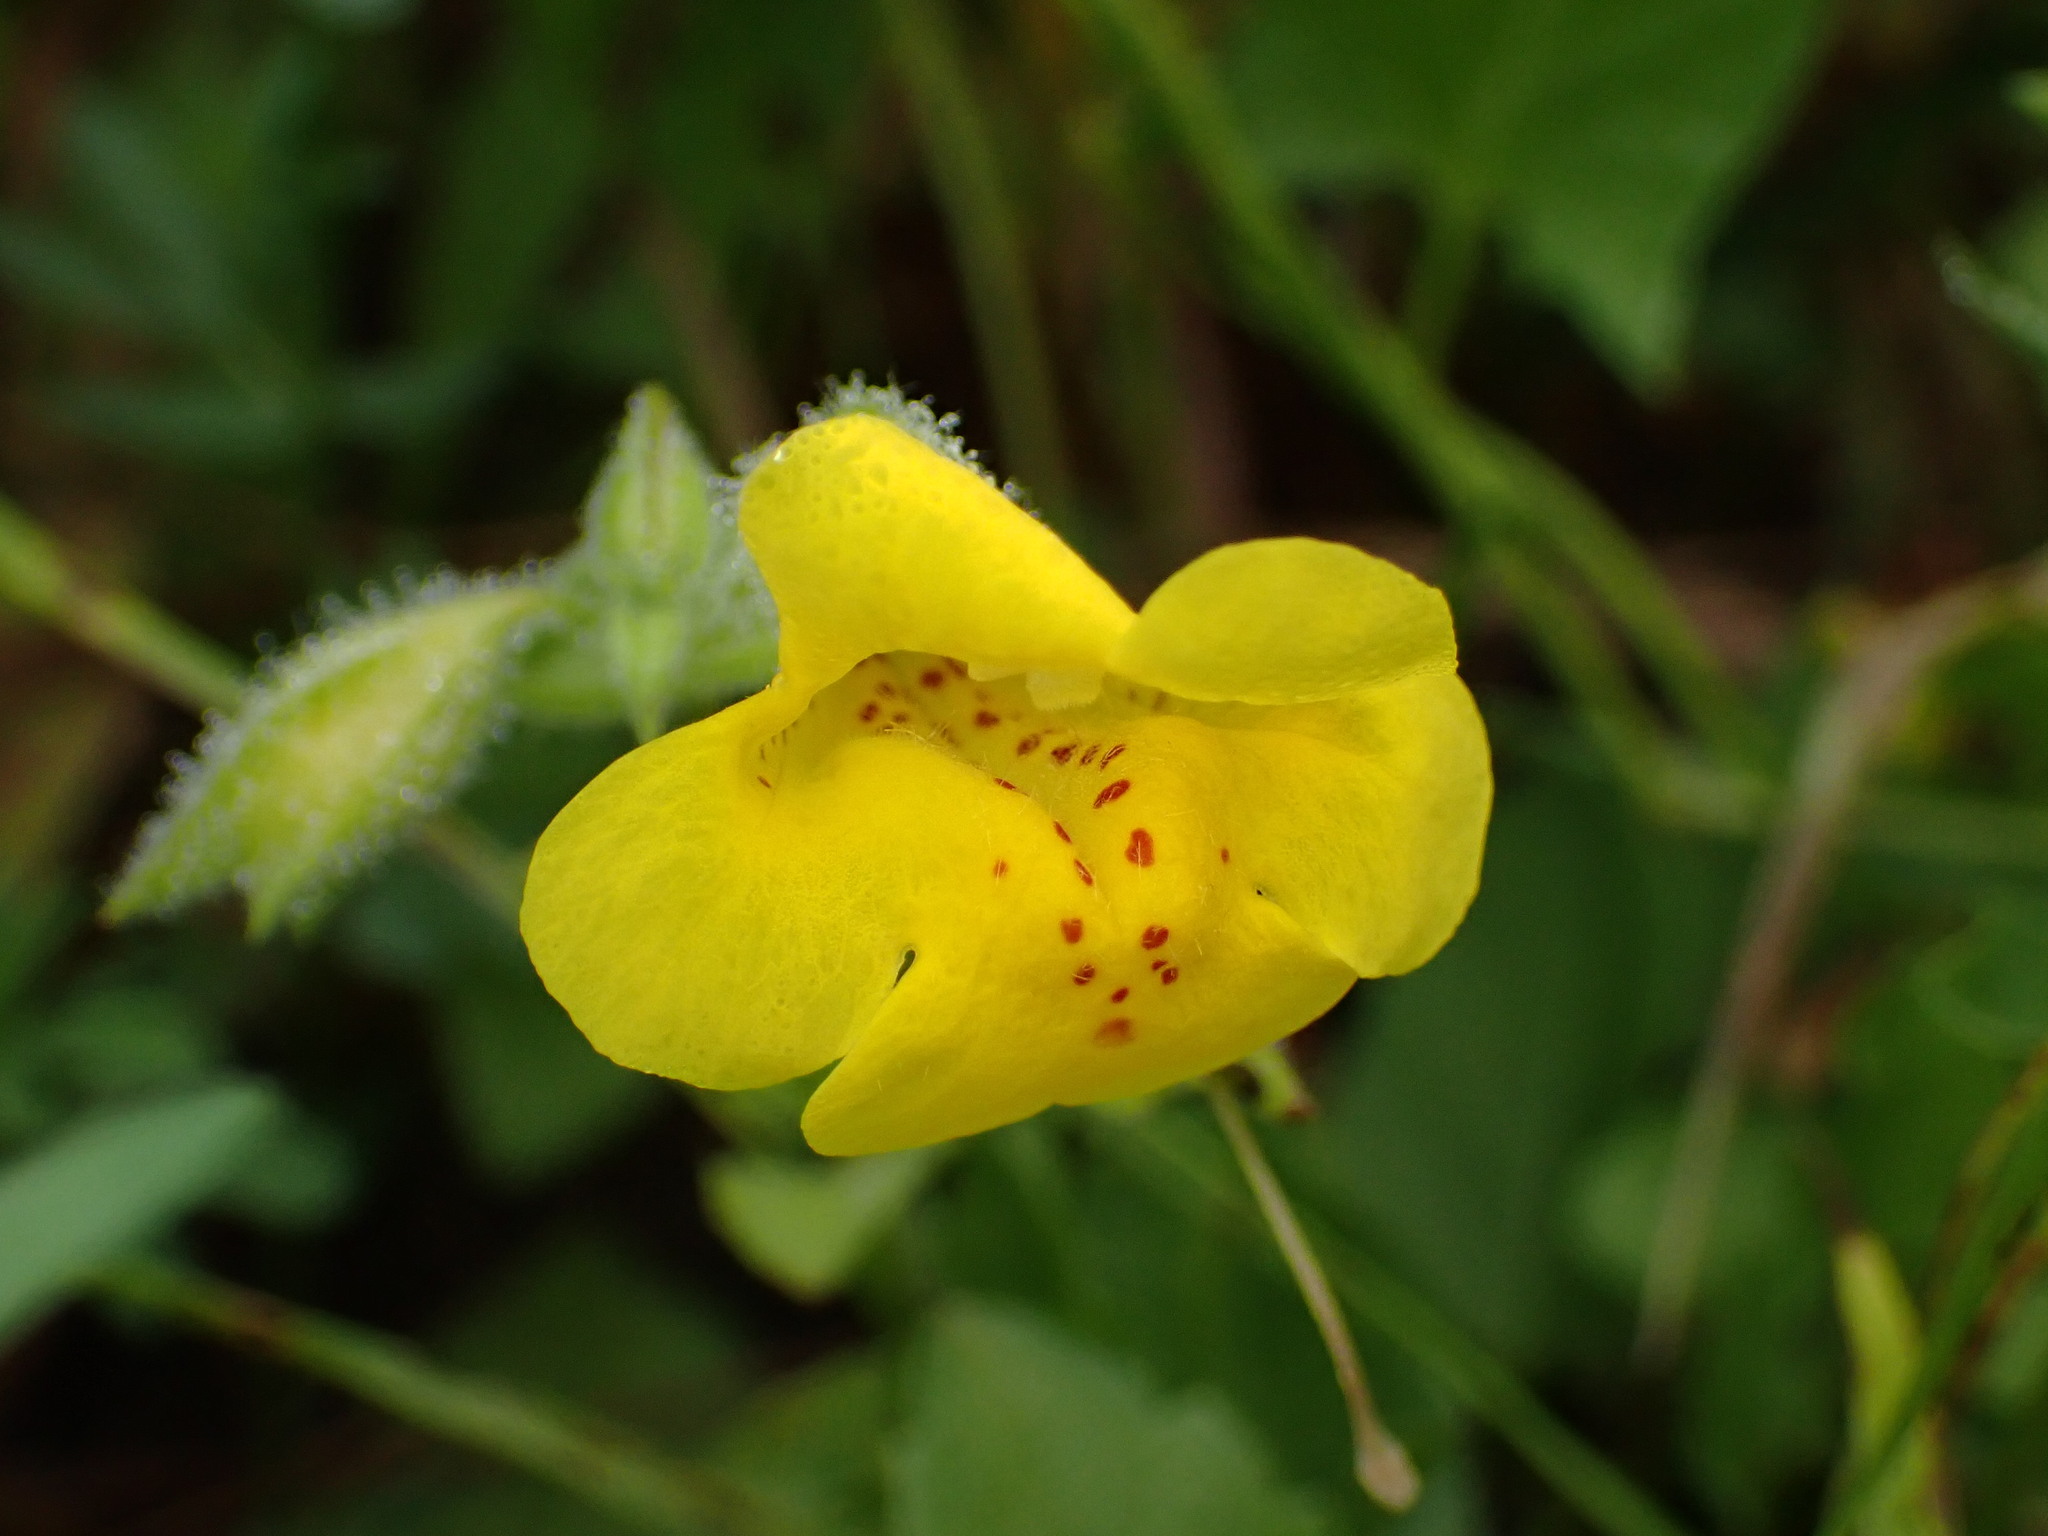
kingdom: Plantae
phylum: Tracheophyta
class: Magnoliopsida
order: Lamiales
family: Phrymaceae
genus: Erythranthe
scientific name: Erythranthe guttata
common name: Monkeyflower
